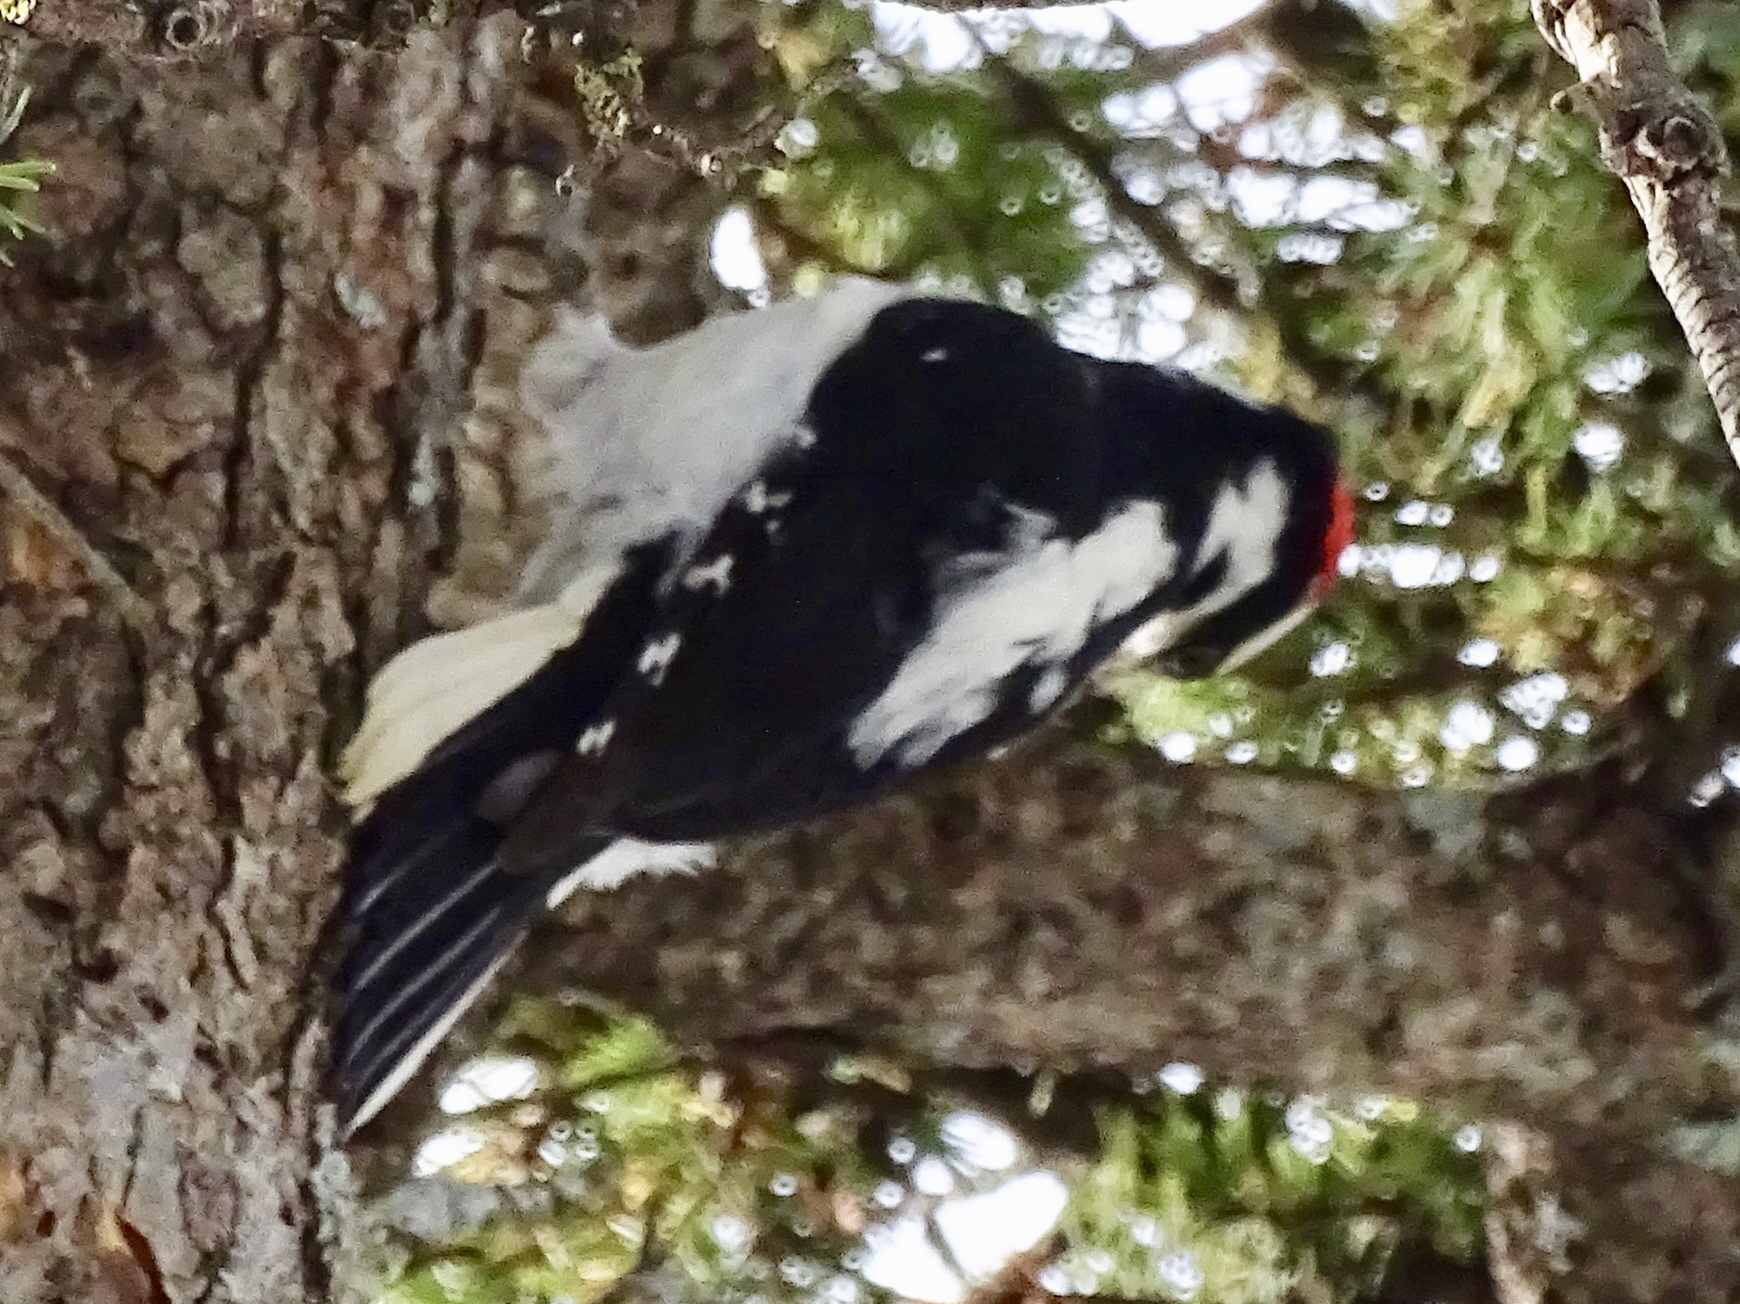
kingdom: Animalia
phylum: Chordata
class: Aves
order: Piciformes
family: Picidae
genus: Leuconotopicus
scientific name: Leuconotopicus villosus
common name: Hairy woodpecker
